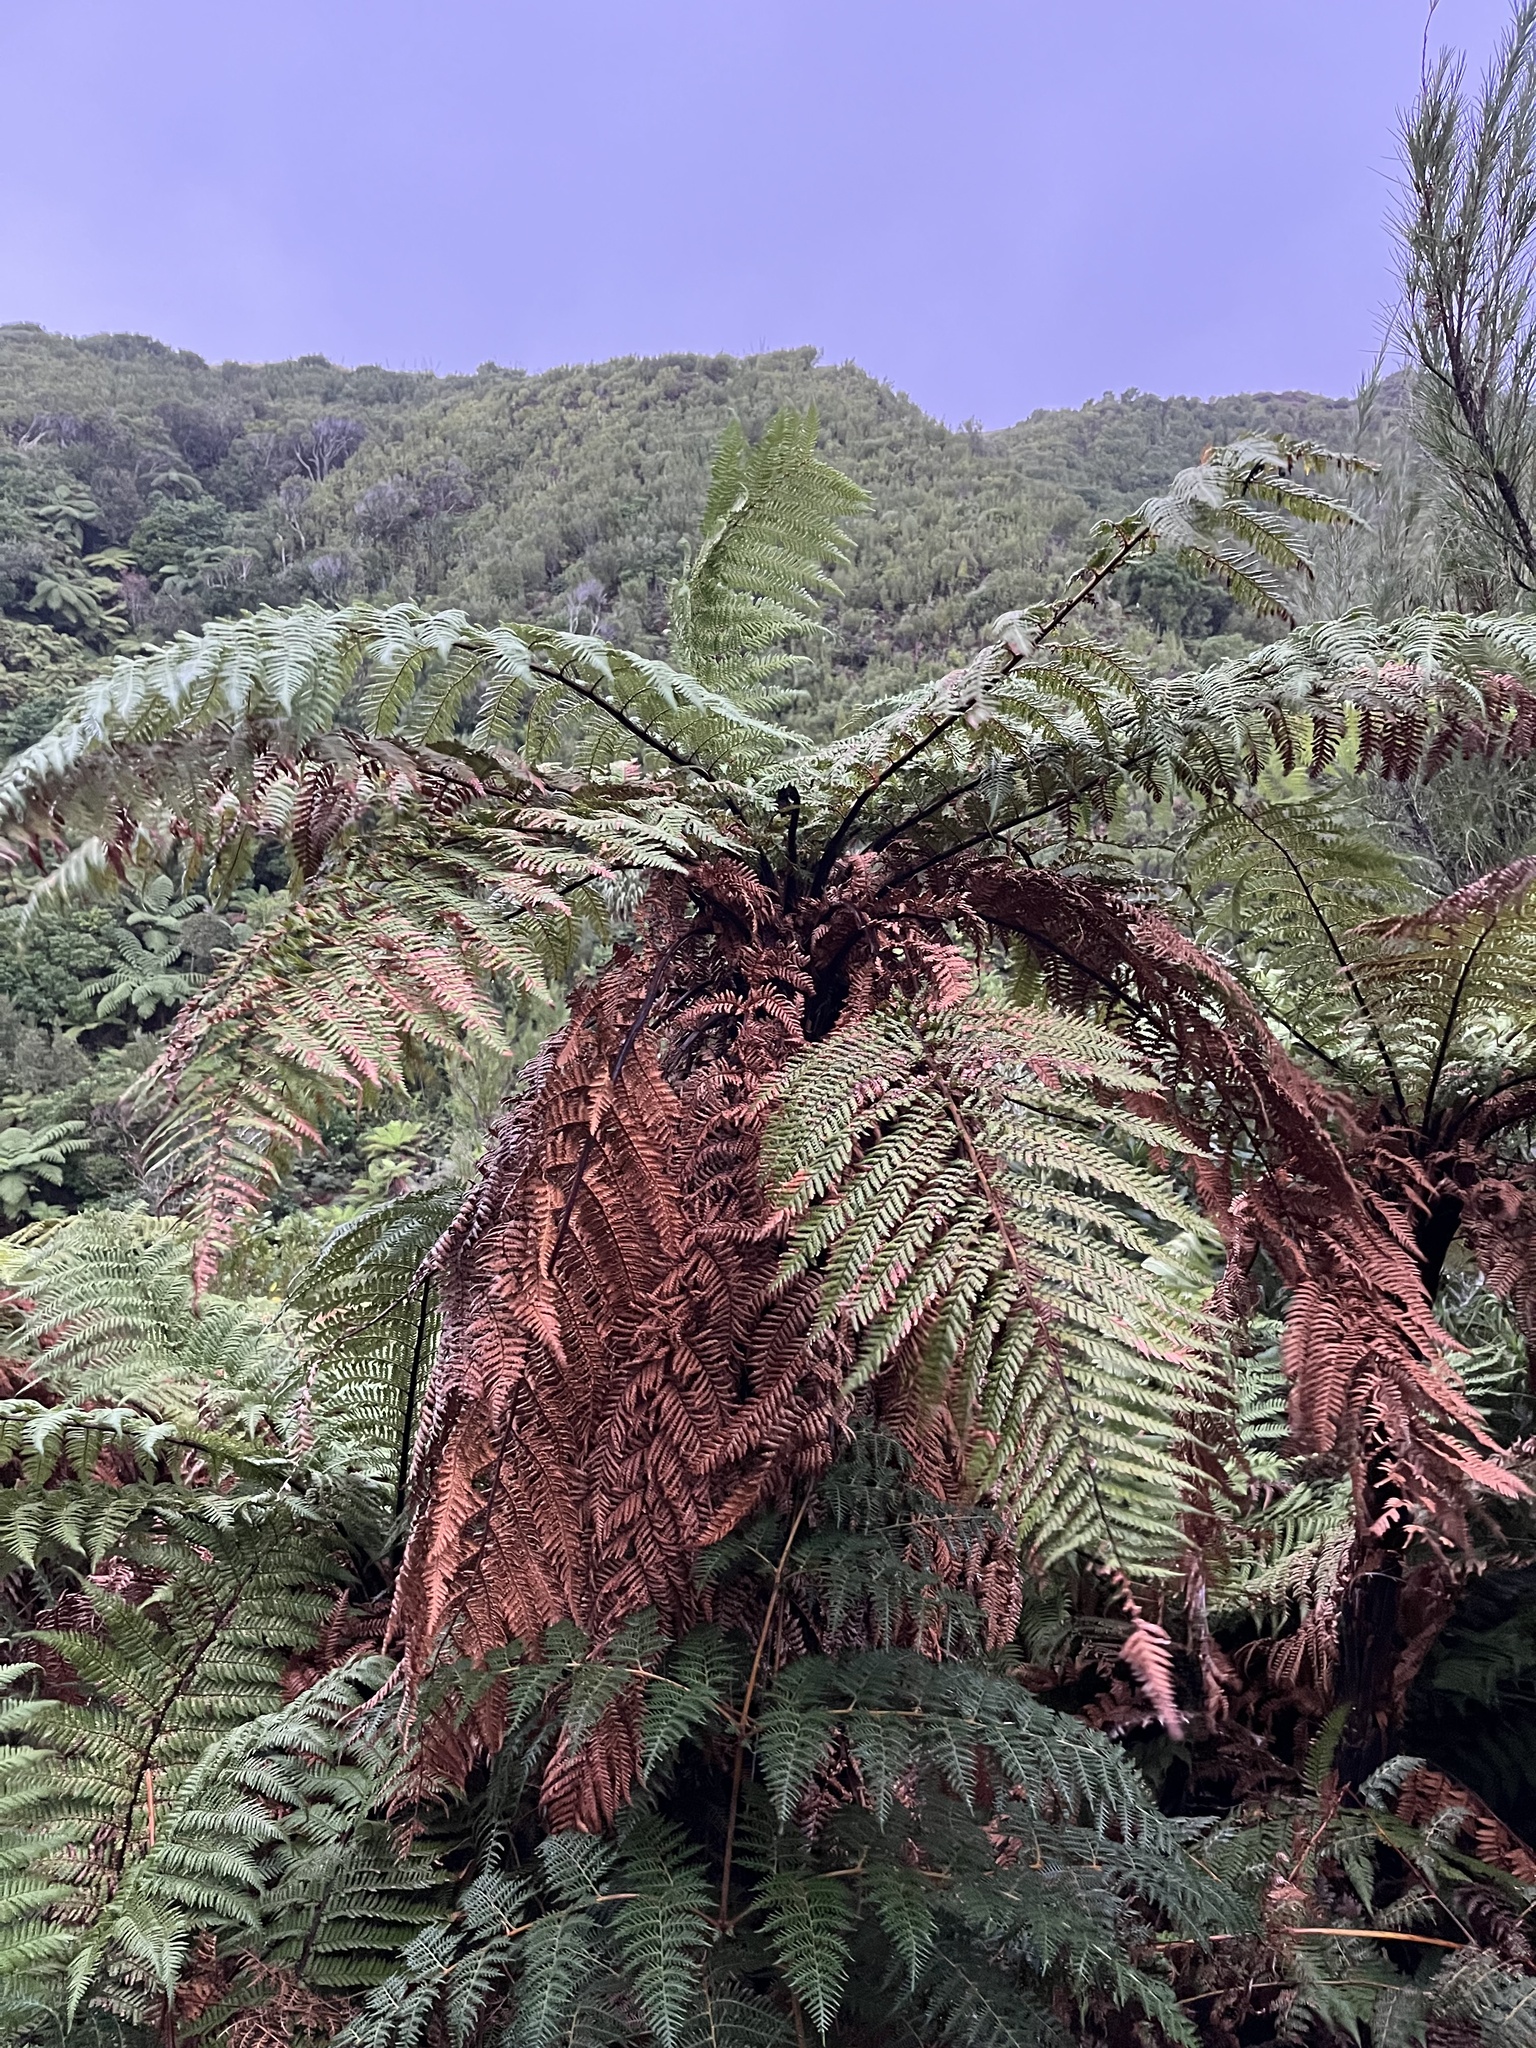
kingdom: Plantae
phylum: Tracheophyta
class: Polypodiopsida
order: Cyatheales
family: Dicksoniaceae
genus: Dicksonia
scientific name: Dicksonia squarrosa
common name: Hard treefern
